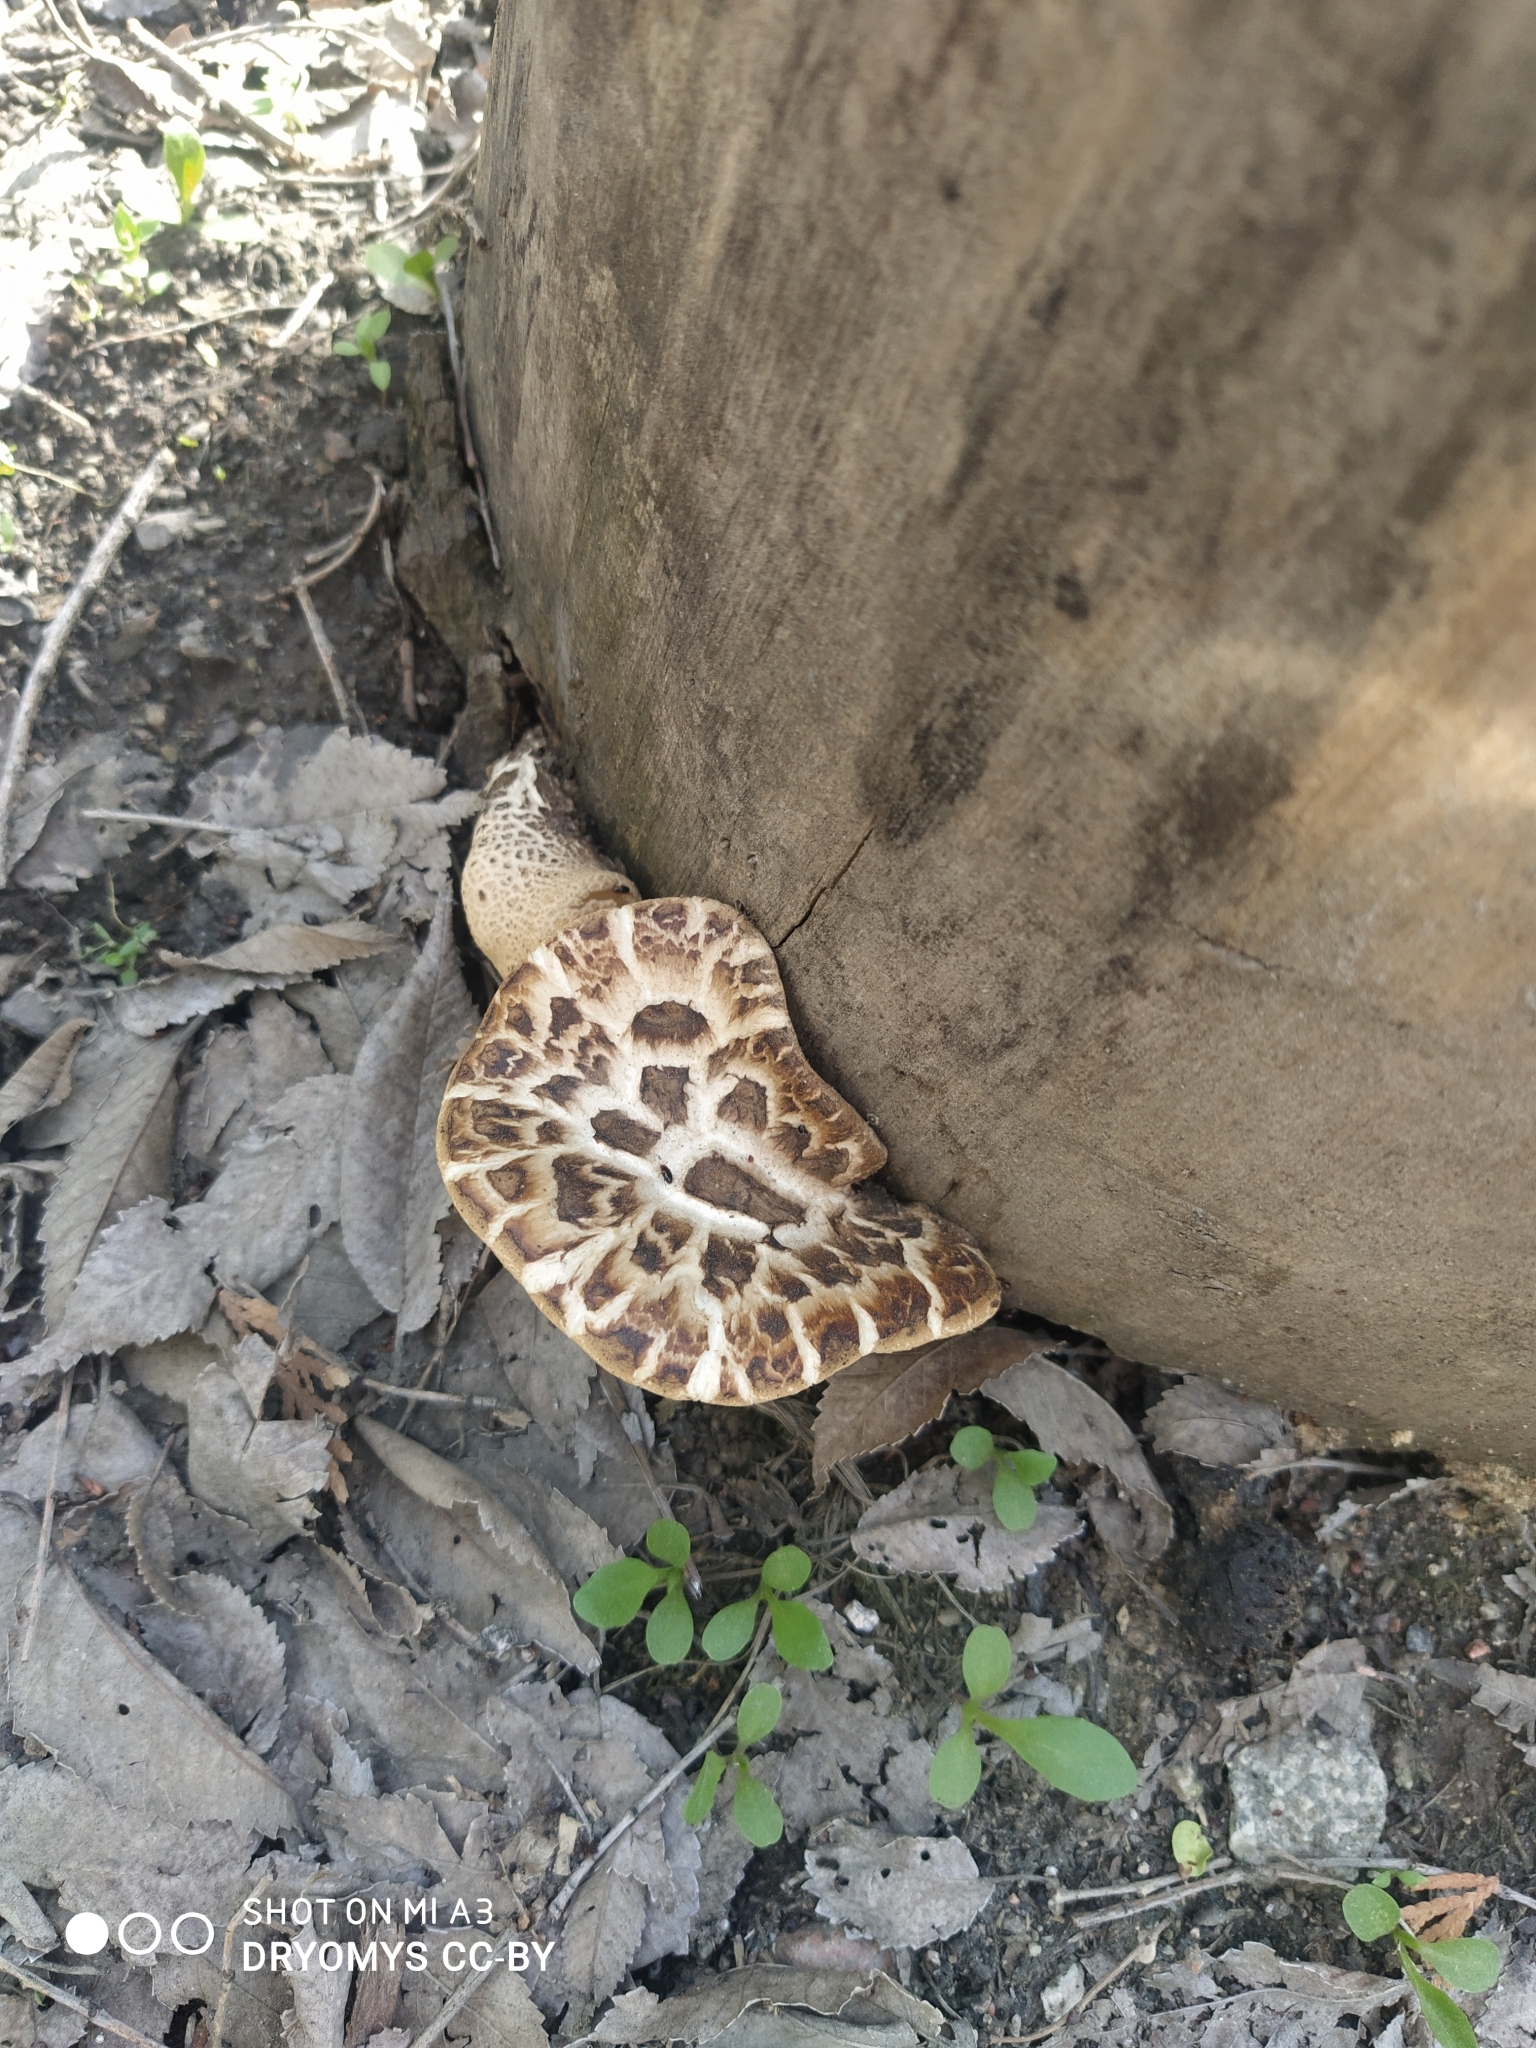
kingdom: Fungi
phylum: Basidiomycota
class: Agaricomycetes
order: Polyporales
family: Polyporaceae
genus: Cerioporus
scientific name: Cerioporus squamosus
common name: Dryad's saddle
